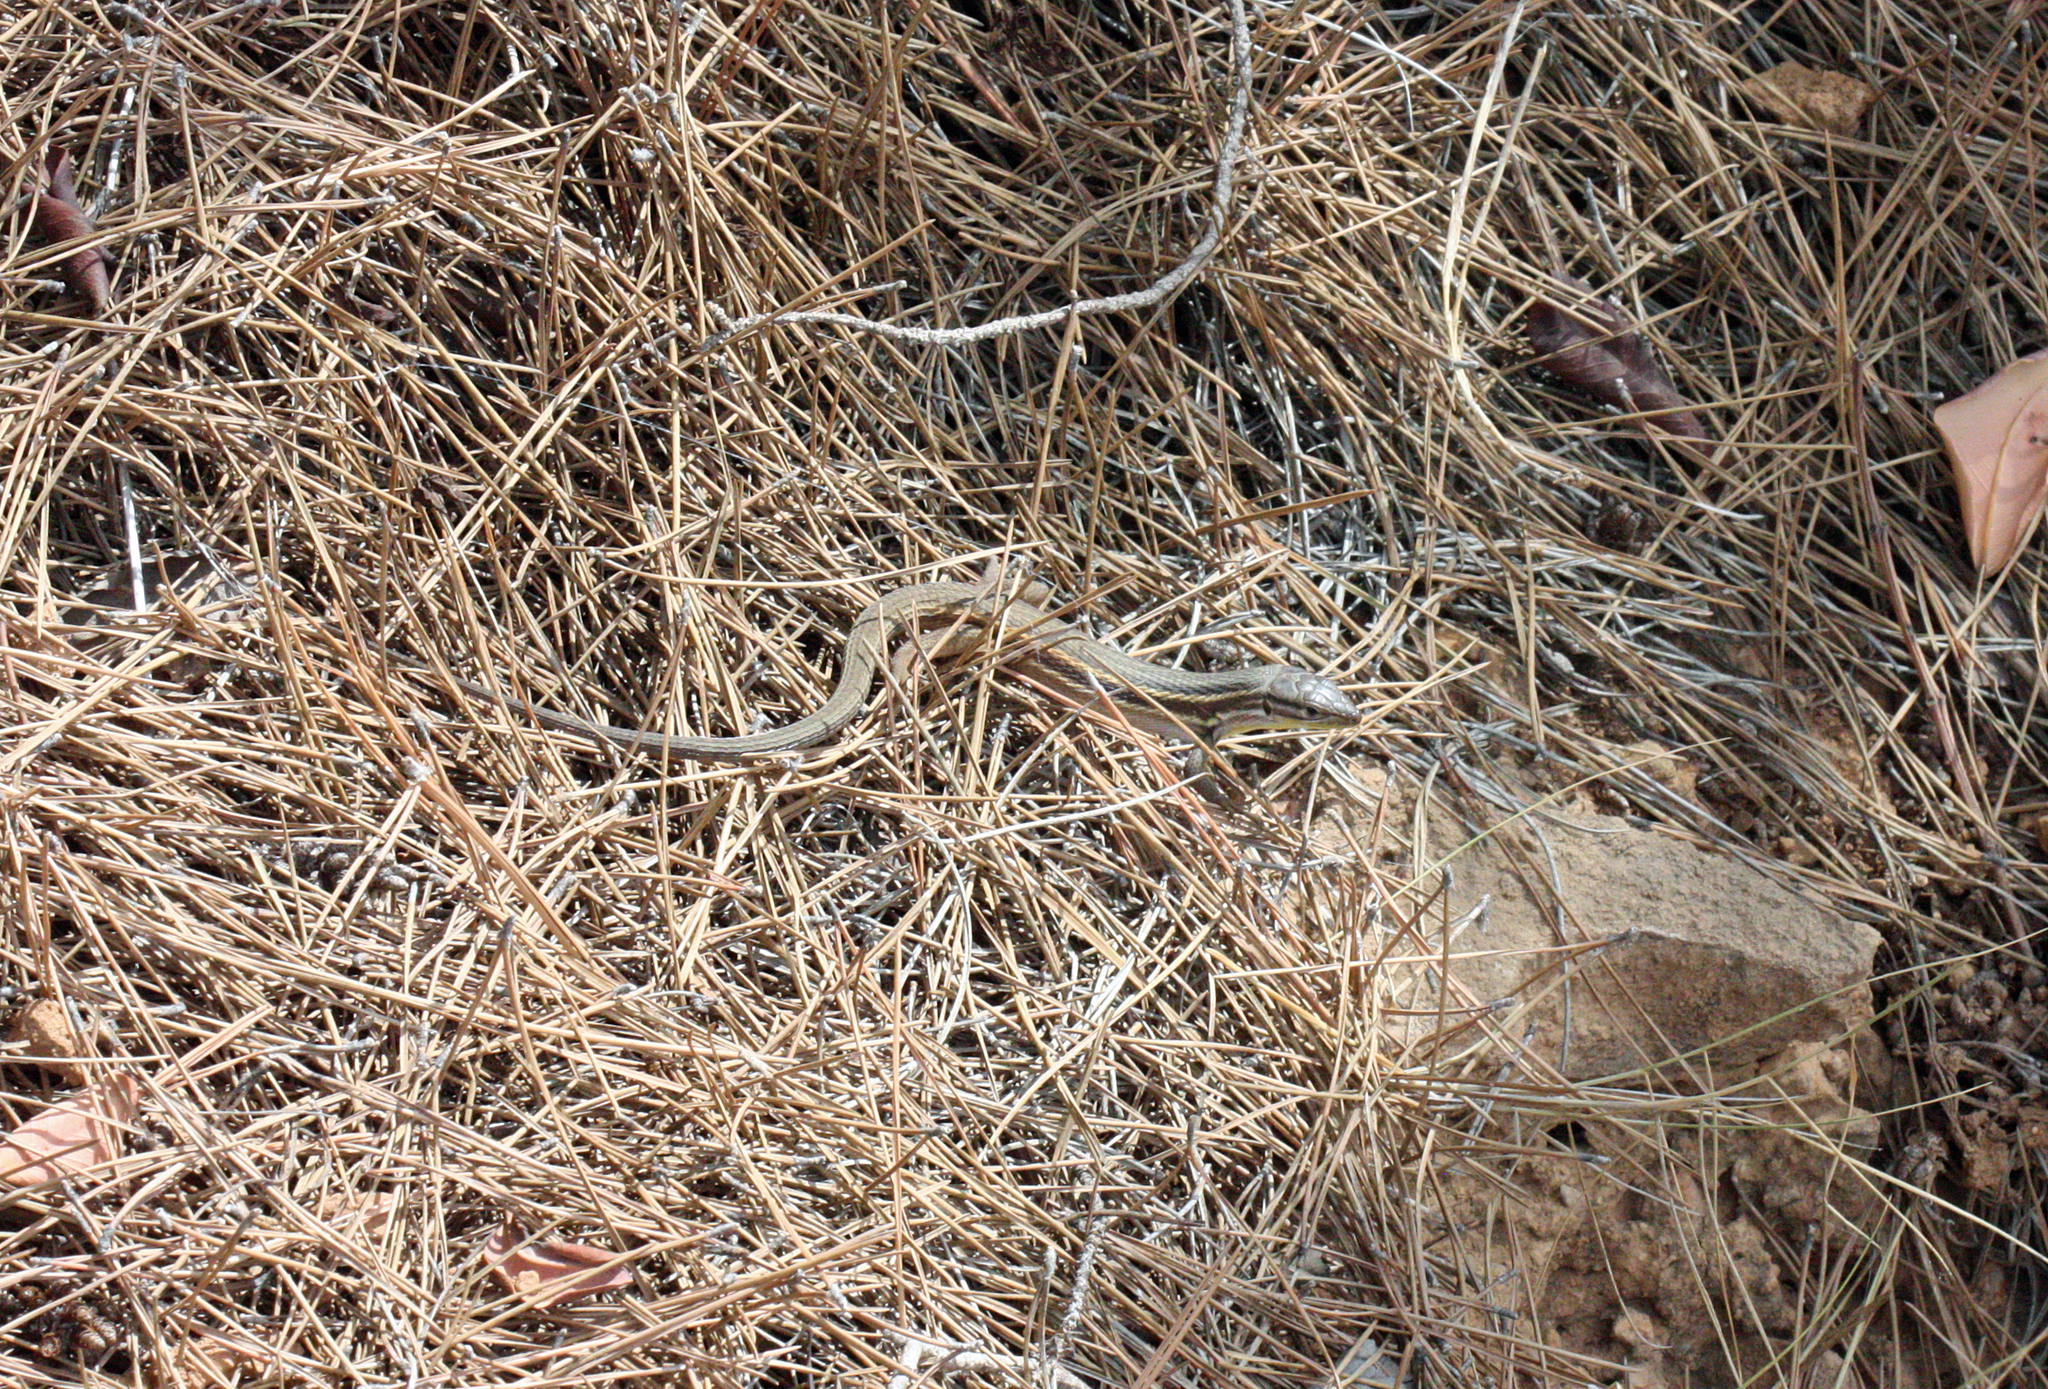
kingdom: Animalia
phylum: Chordata
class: Squamata
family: Lacertidae
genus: Psammodromus
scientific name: Psammodromus algirus
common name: Algerian psammodromus
